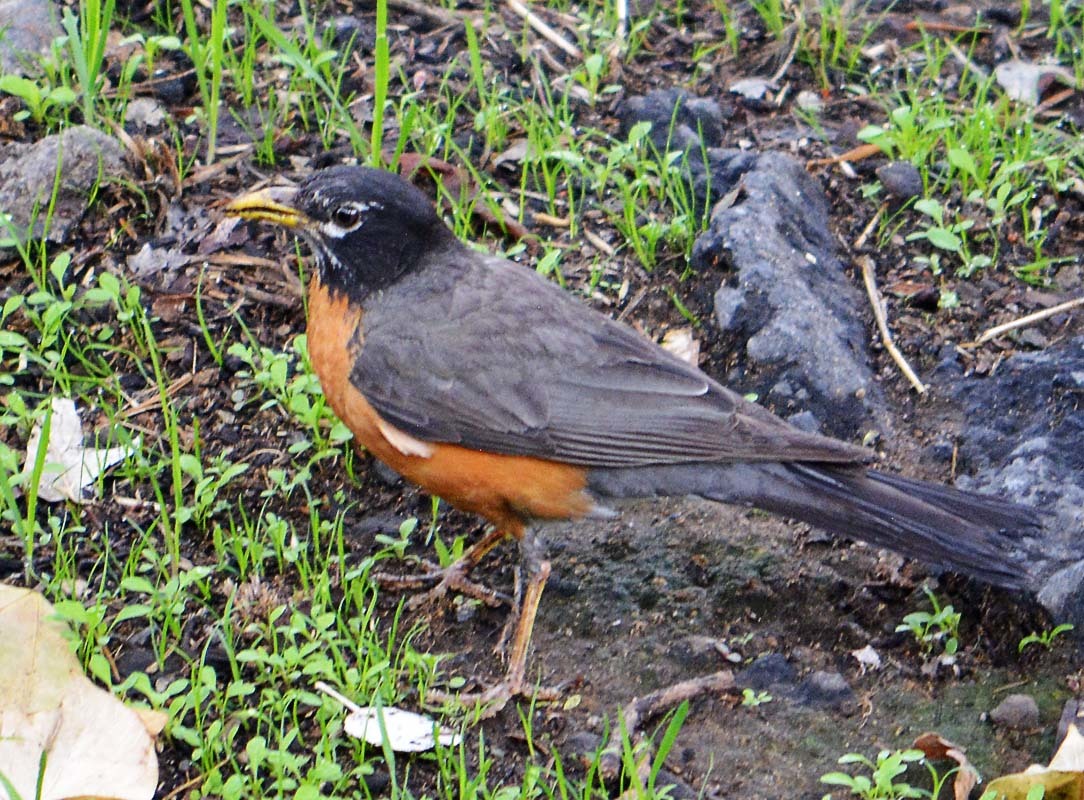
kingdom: Animalia
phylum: Chordata
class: Aves
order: Passeriformes
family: Turdidae
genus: Turdus
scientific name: Turdus migratorius
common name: American robin
